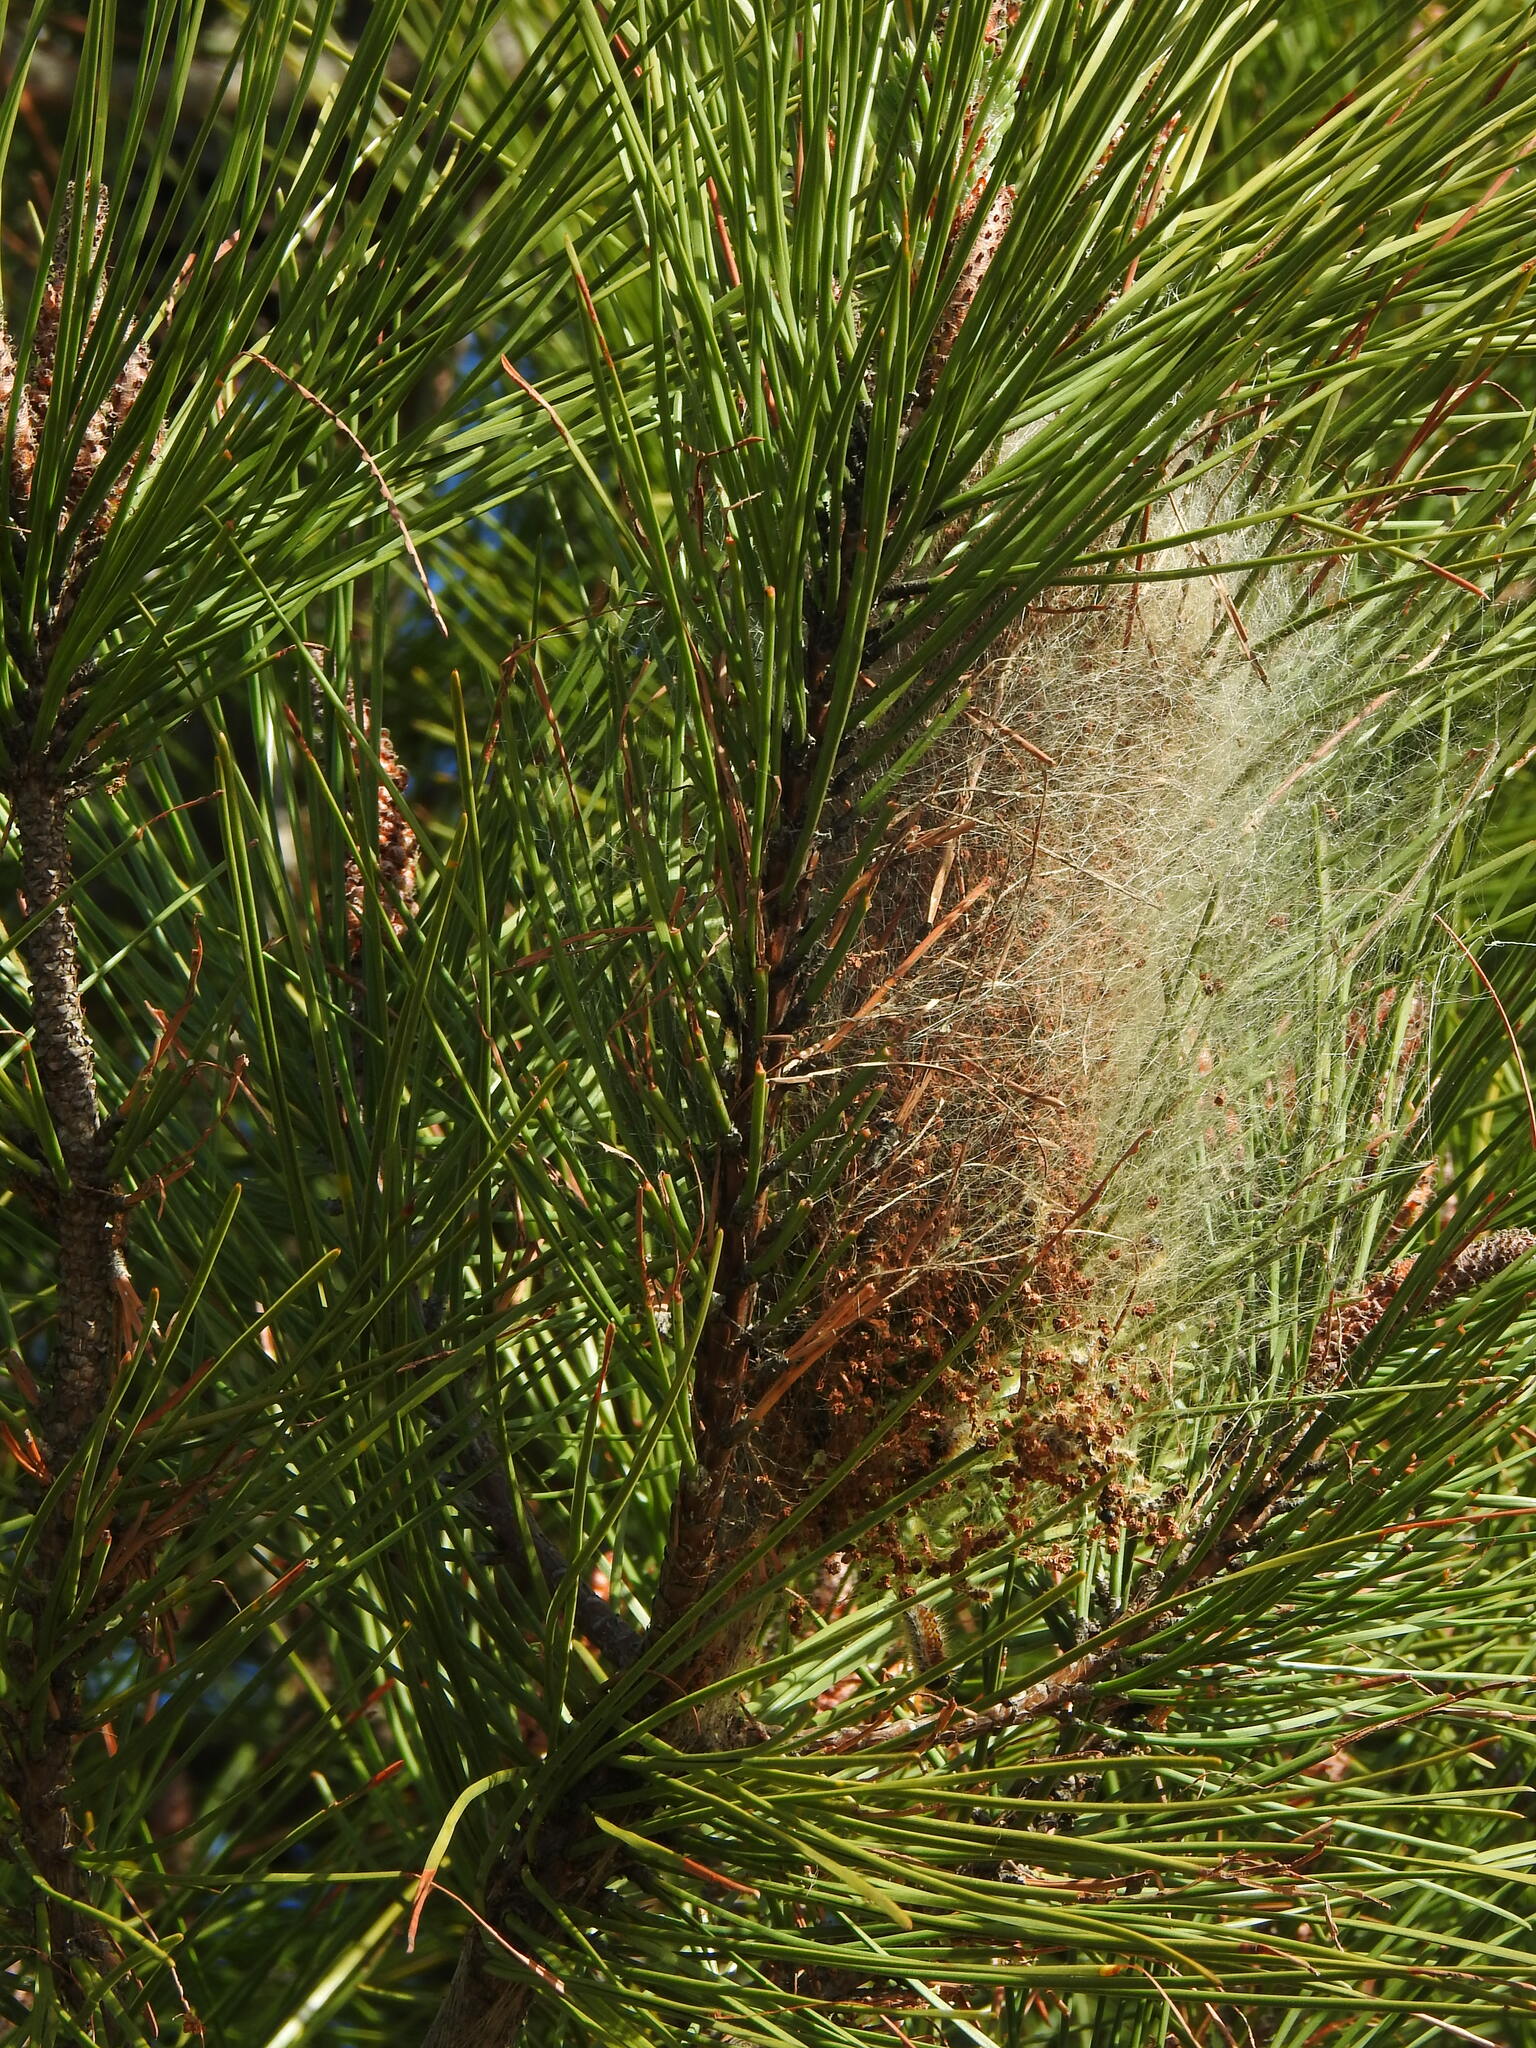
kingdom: Animalia
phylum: Arthropoda
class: Insecta
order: Lepidoptera
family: Notodontidae
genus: Thaumetopoea
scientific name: Thaumetopoea pityocampa
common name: Pine processionary
